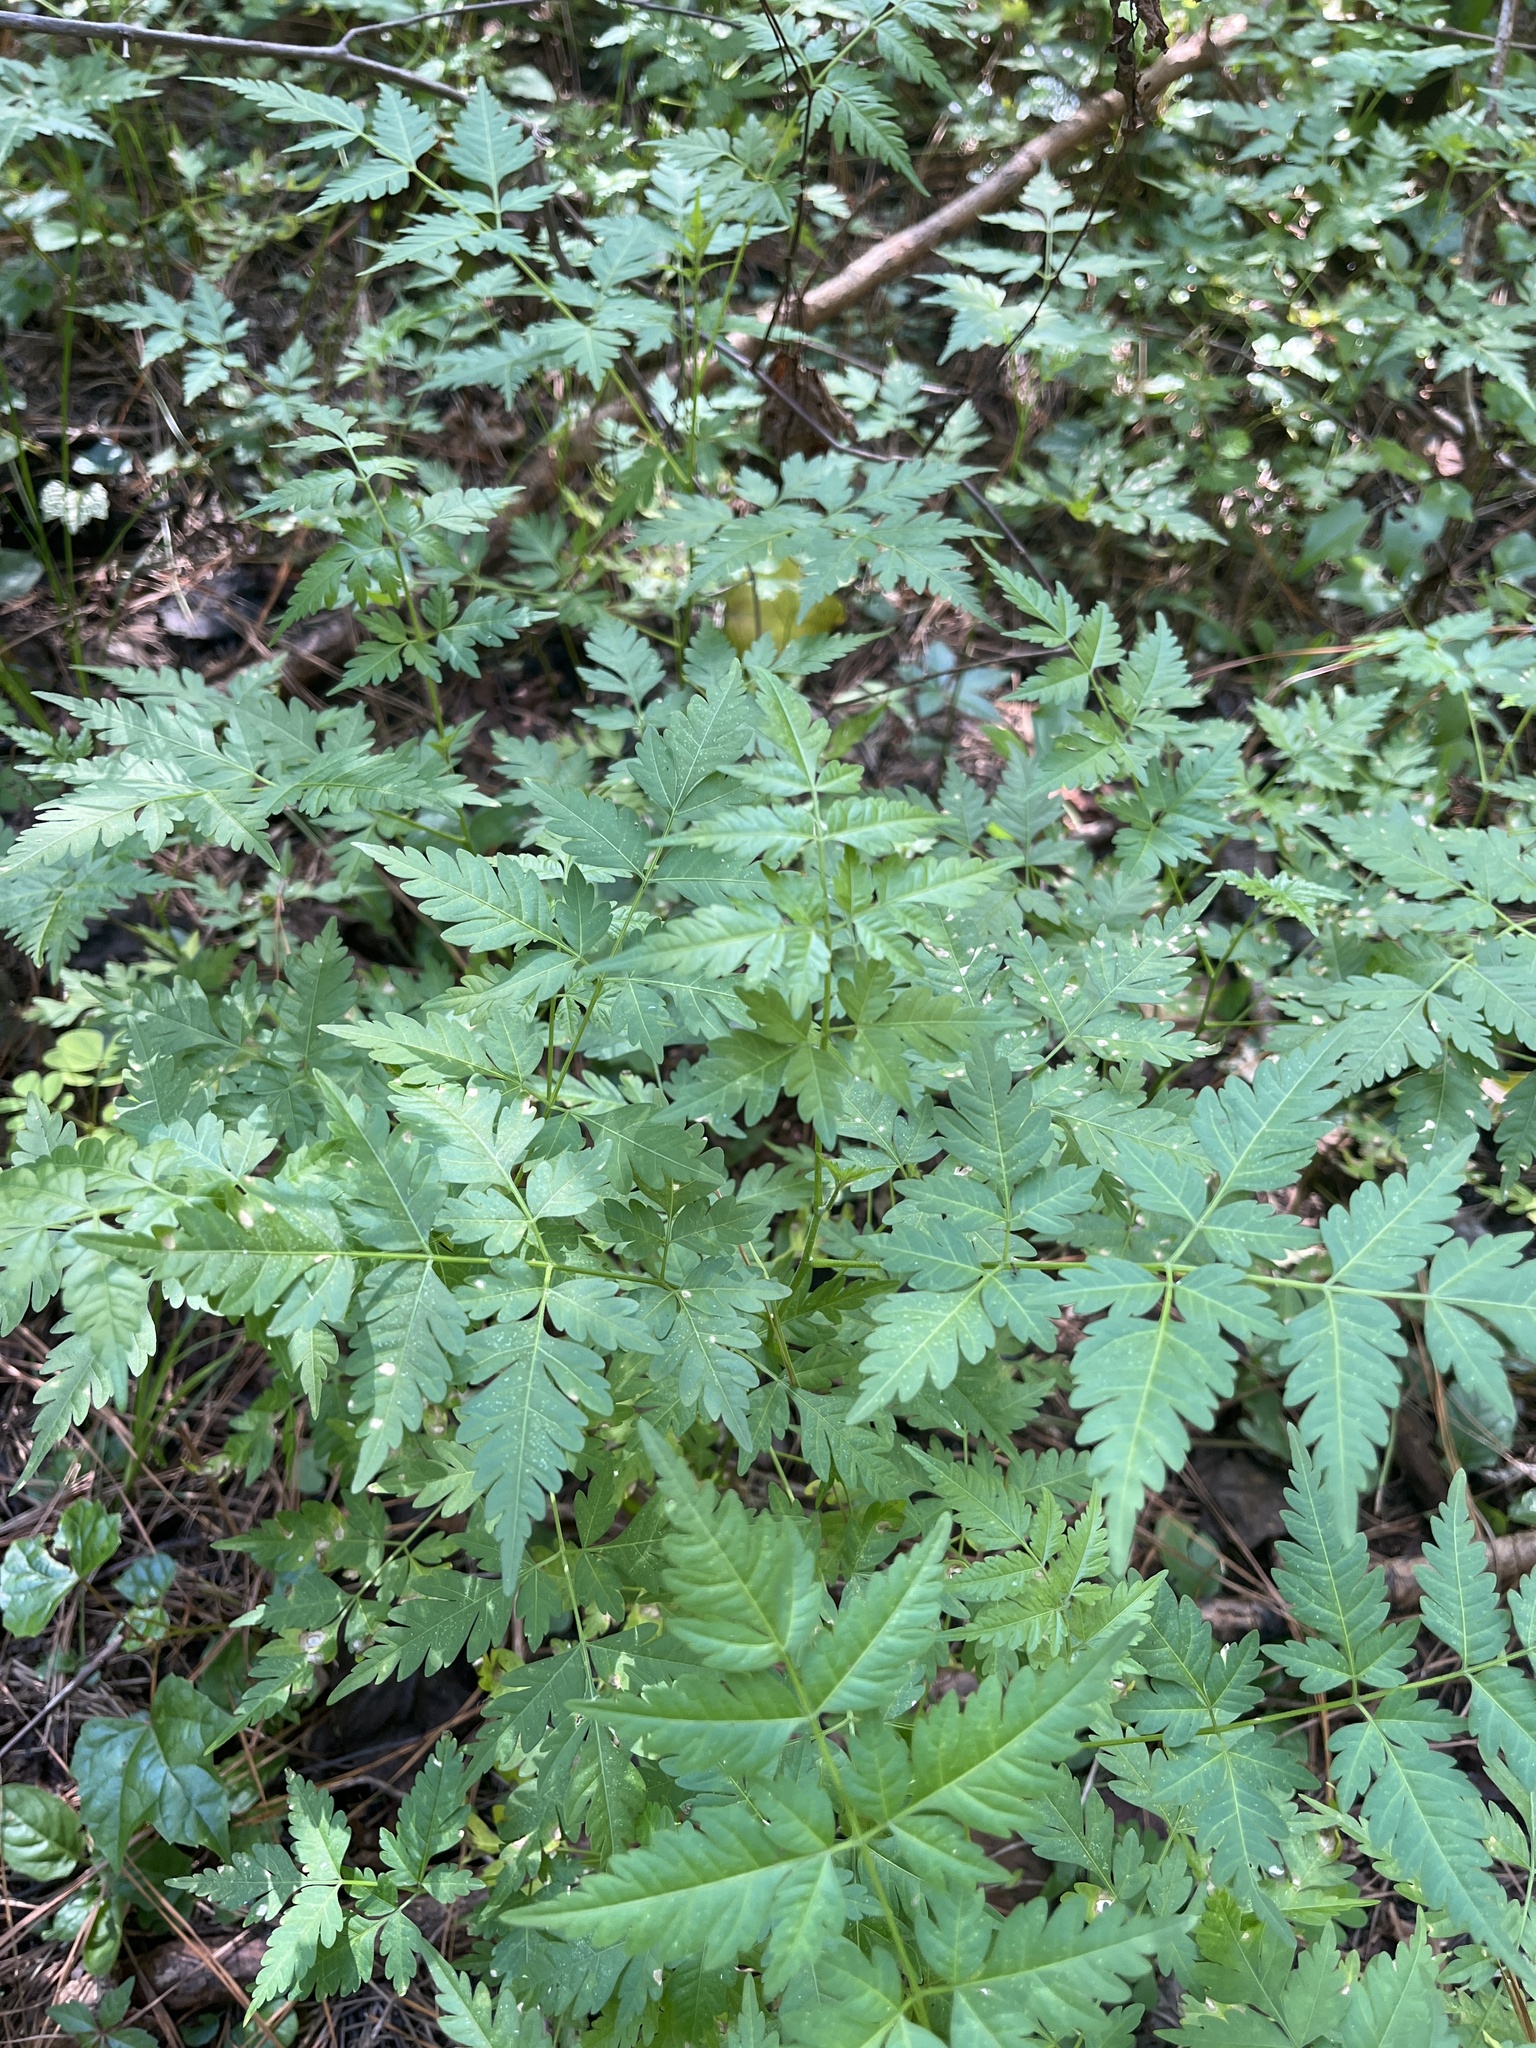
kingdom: Plantae
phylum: Tracheophyta
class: Magnoliopsida
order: Sapindales
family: Meliaceae
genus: Melia
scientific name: Melia azedarach
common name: Chinaberrytree
